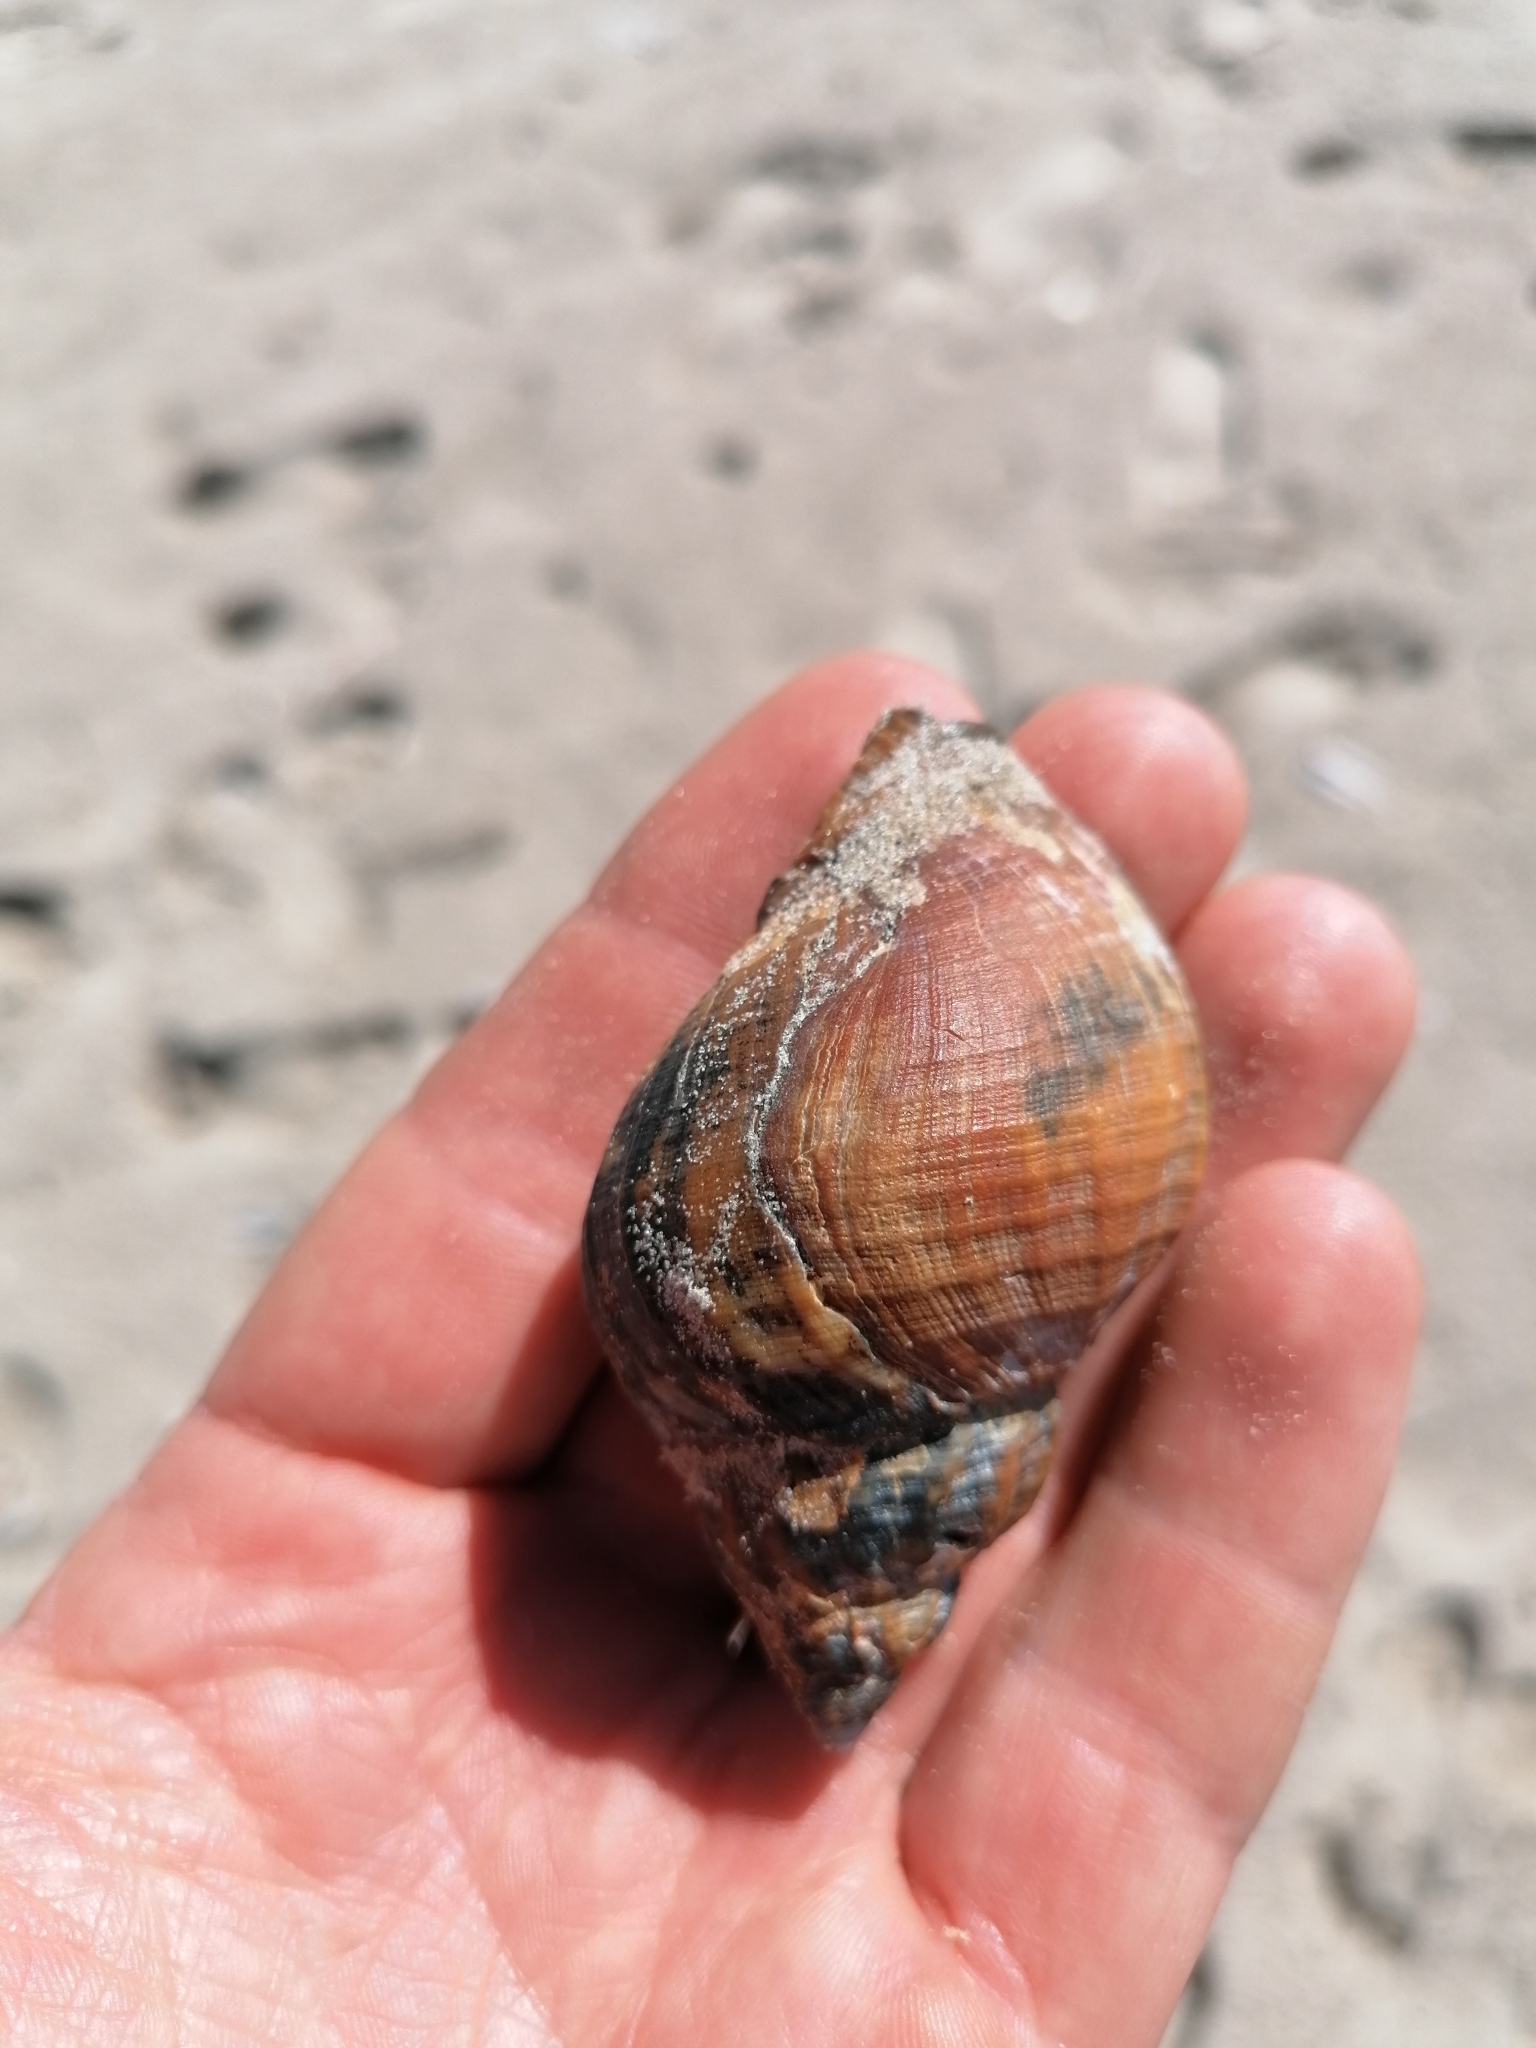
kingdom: Animalia
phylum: Mollusca
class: Gastropoda
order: Neogastropoda
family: Buccinidae
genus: Buccinum
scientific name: Buccinum undatum
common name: Common whelk
